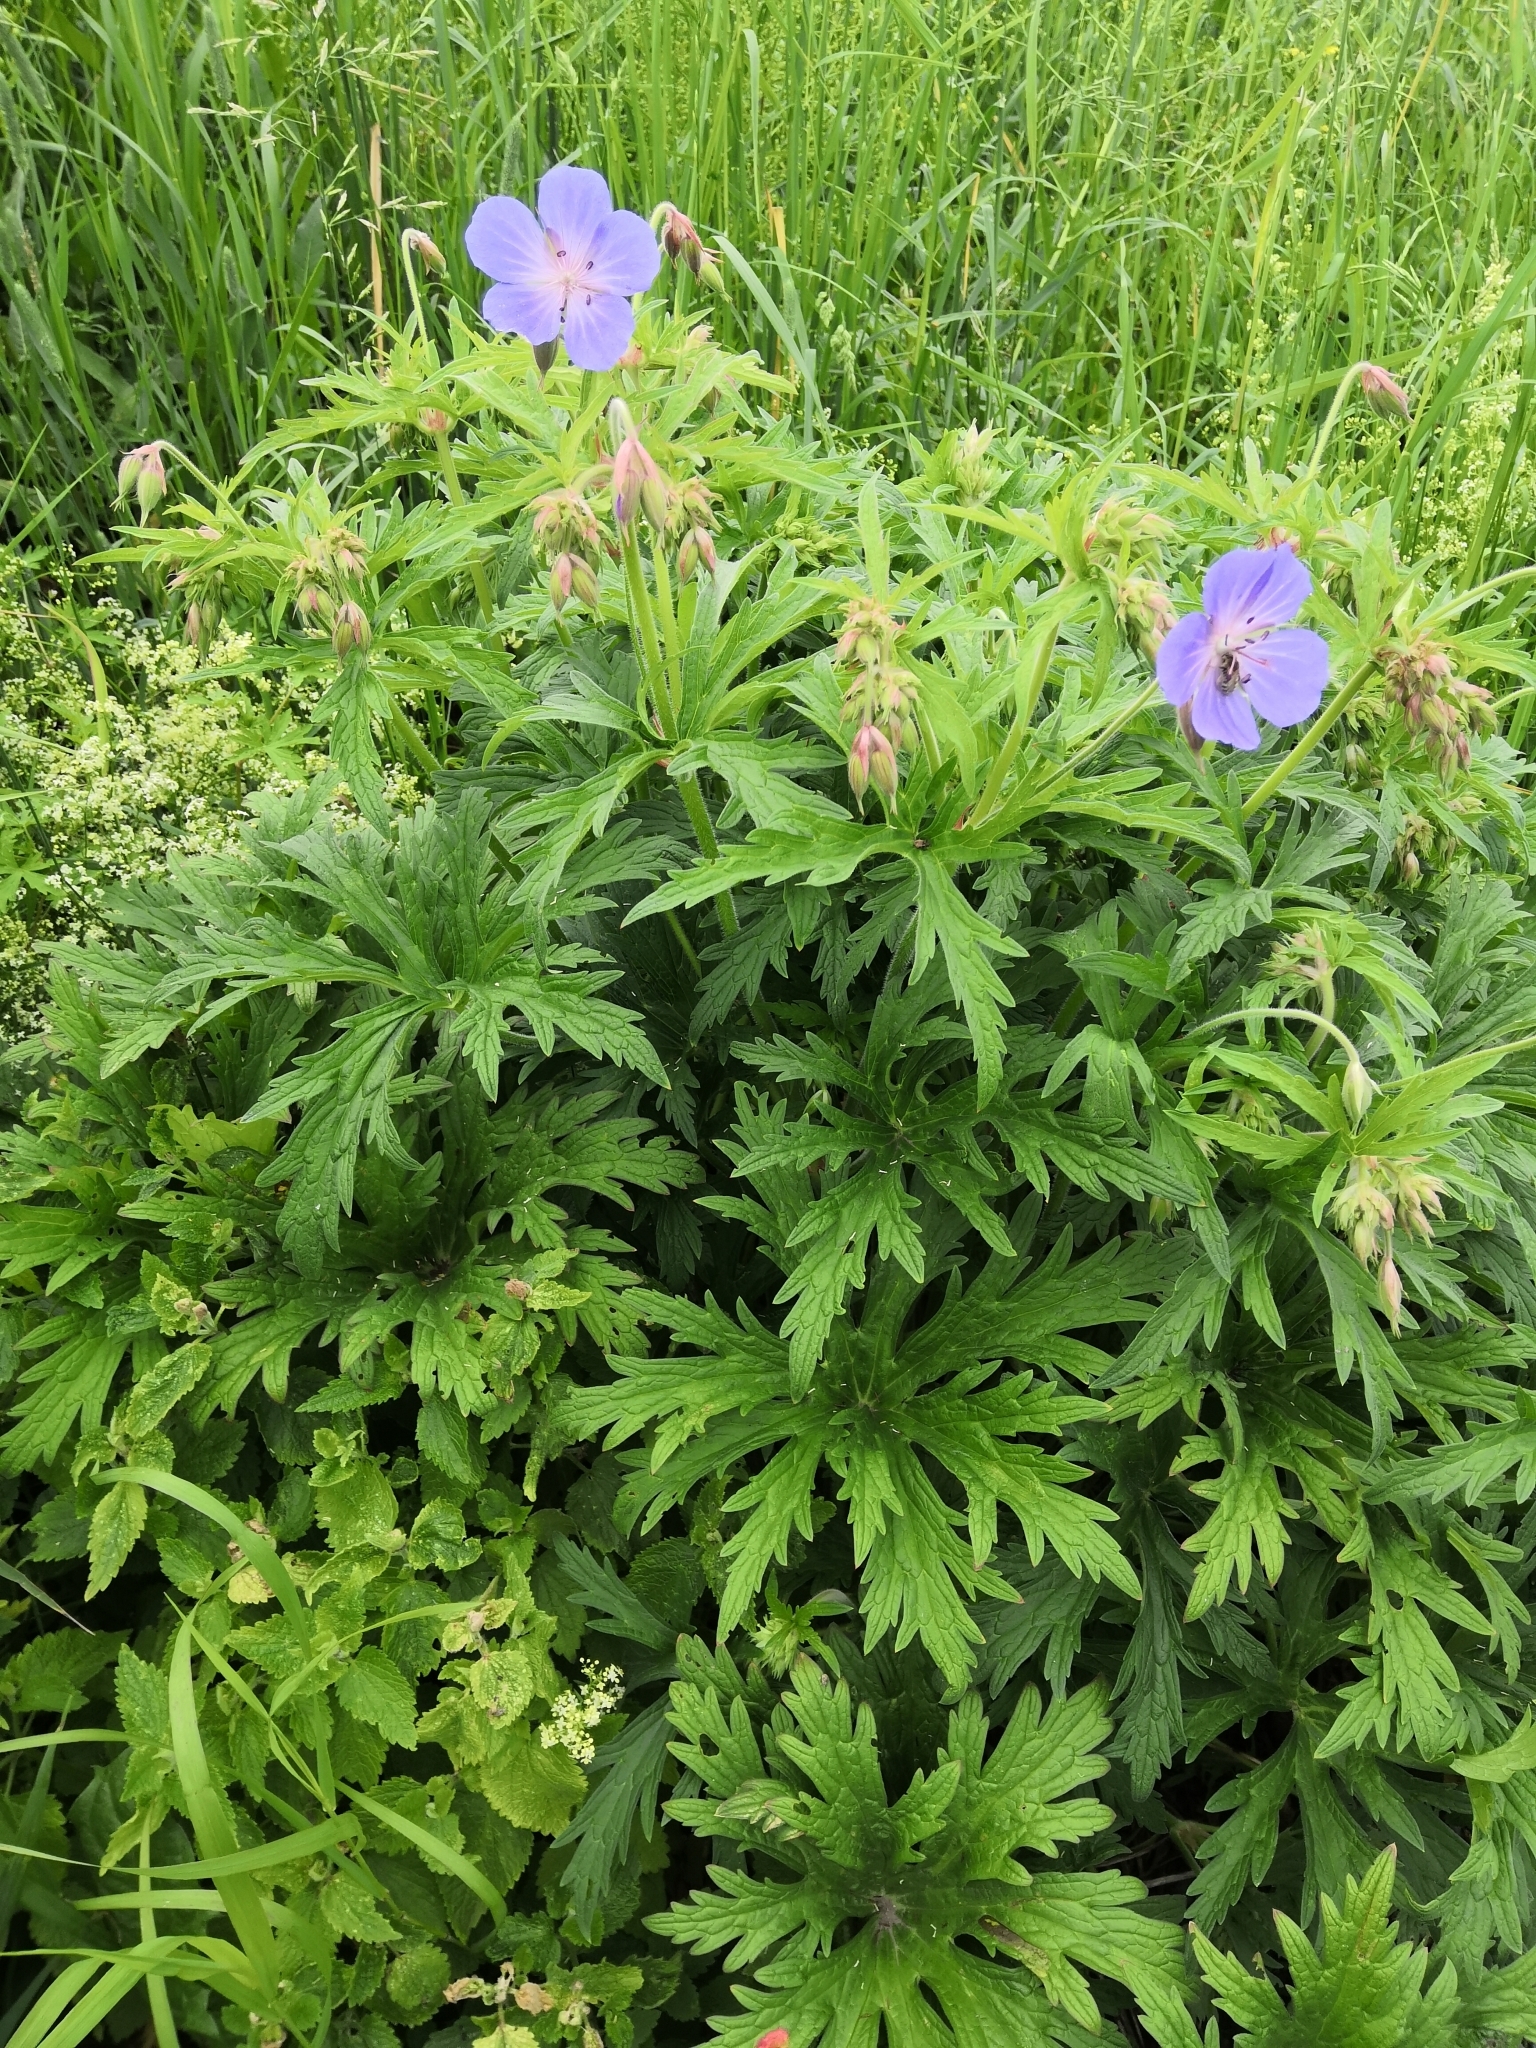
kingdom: Plantae
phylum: Tracheophyta
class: Magnoliopsida
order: Geraniales
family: Geraniaceae
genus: Geranium
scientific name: Geranium pratense
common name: Meadow crane's-bill
